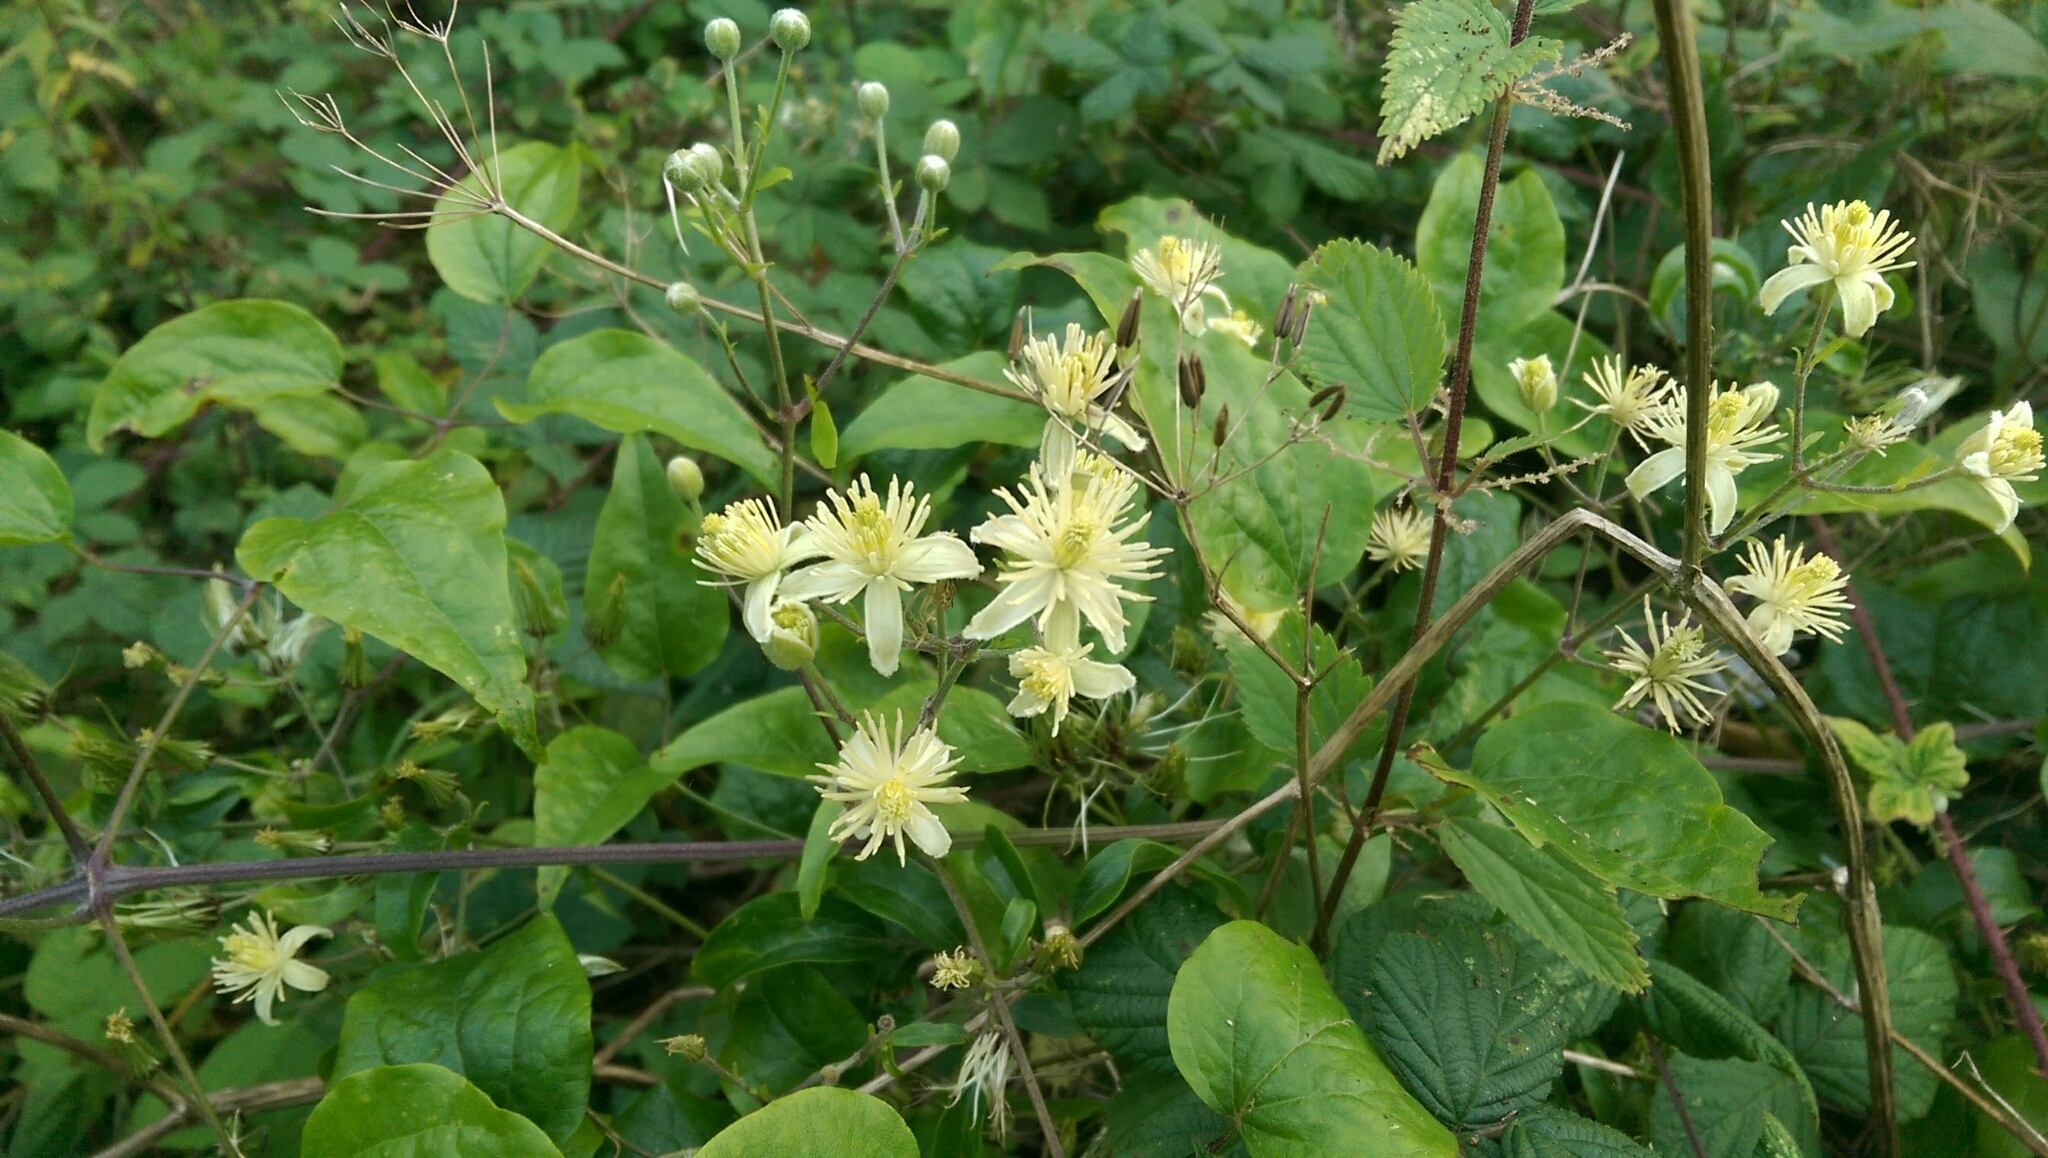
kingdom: Plantae
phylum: Tracheophyta
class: Magnoliopsida
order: Ranunculales
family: Ranunculaceae
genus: Clematis
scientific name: Clematis vitalba
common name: Evergreen clematis
